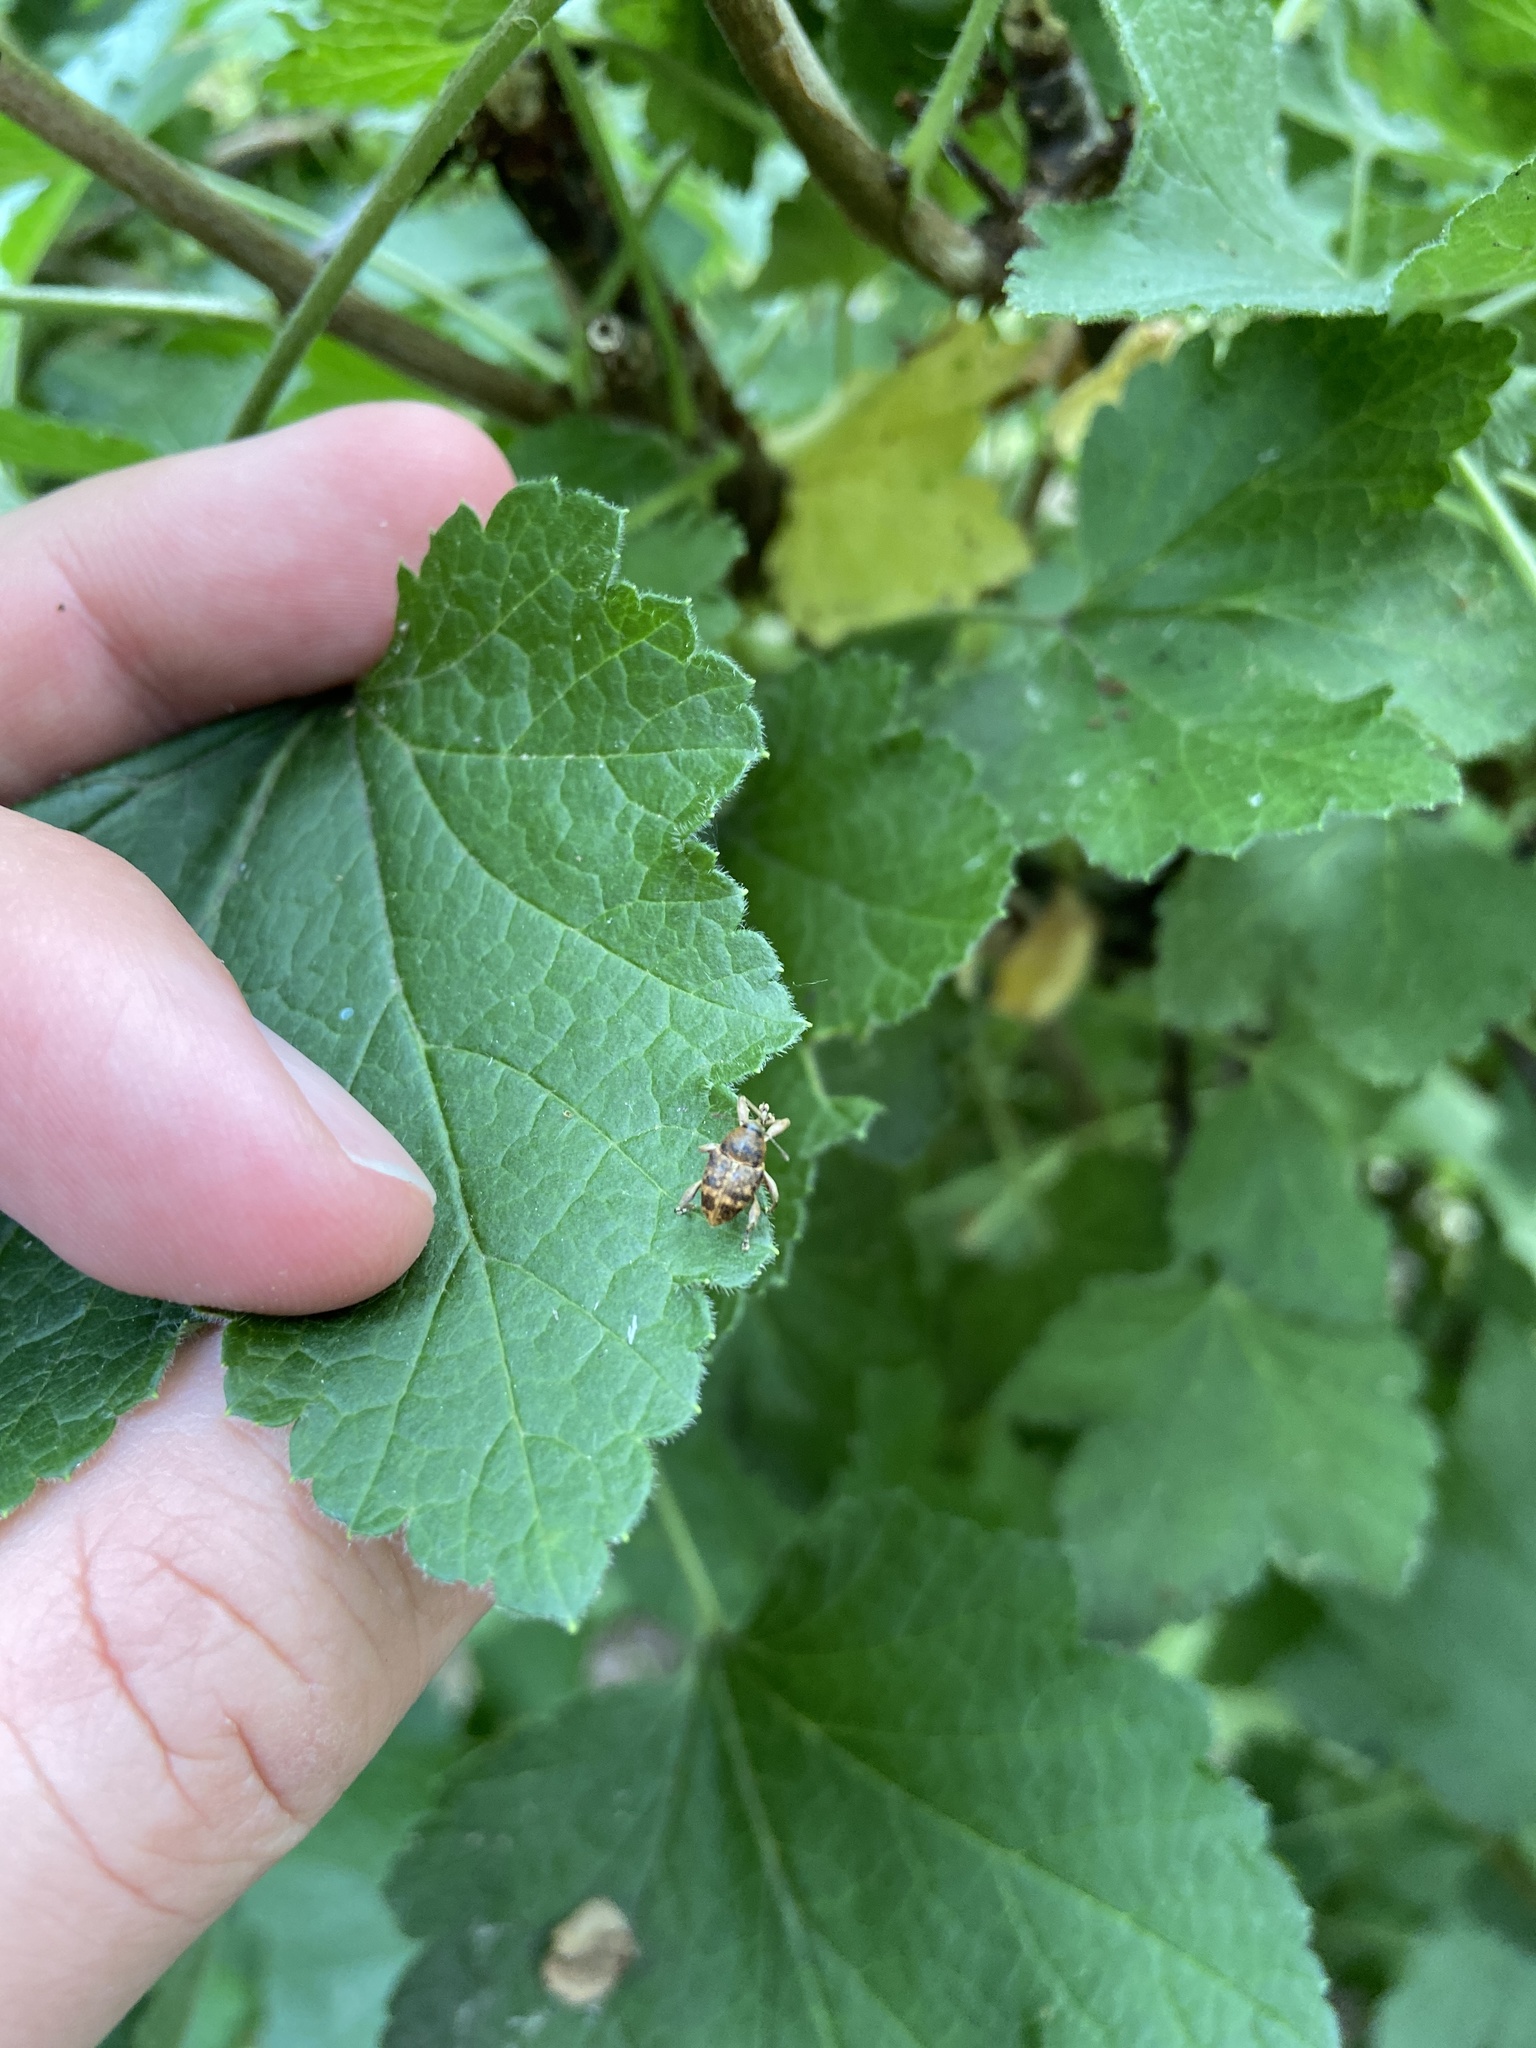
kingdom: Animalia
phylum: Arthropoda
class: Insecta
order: Coleoptera
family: Curculionidae
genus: Curculio
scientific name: Curculio
